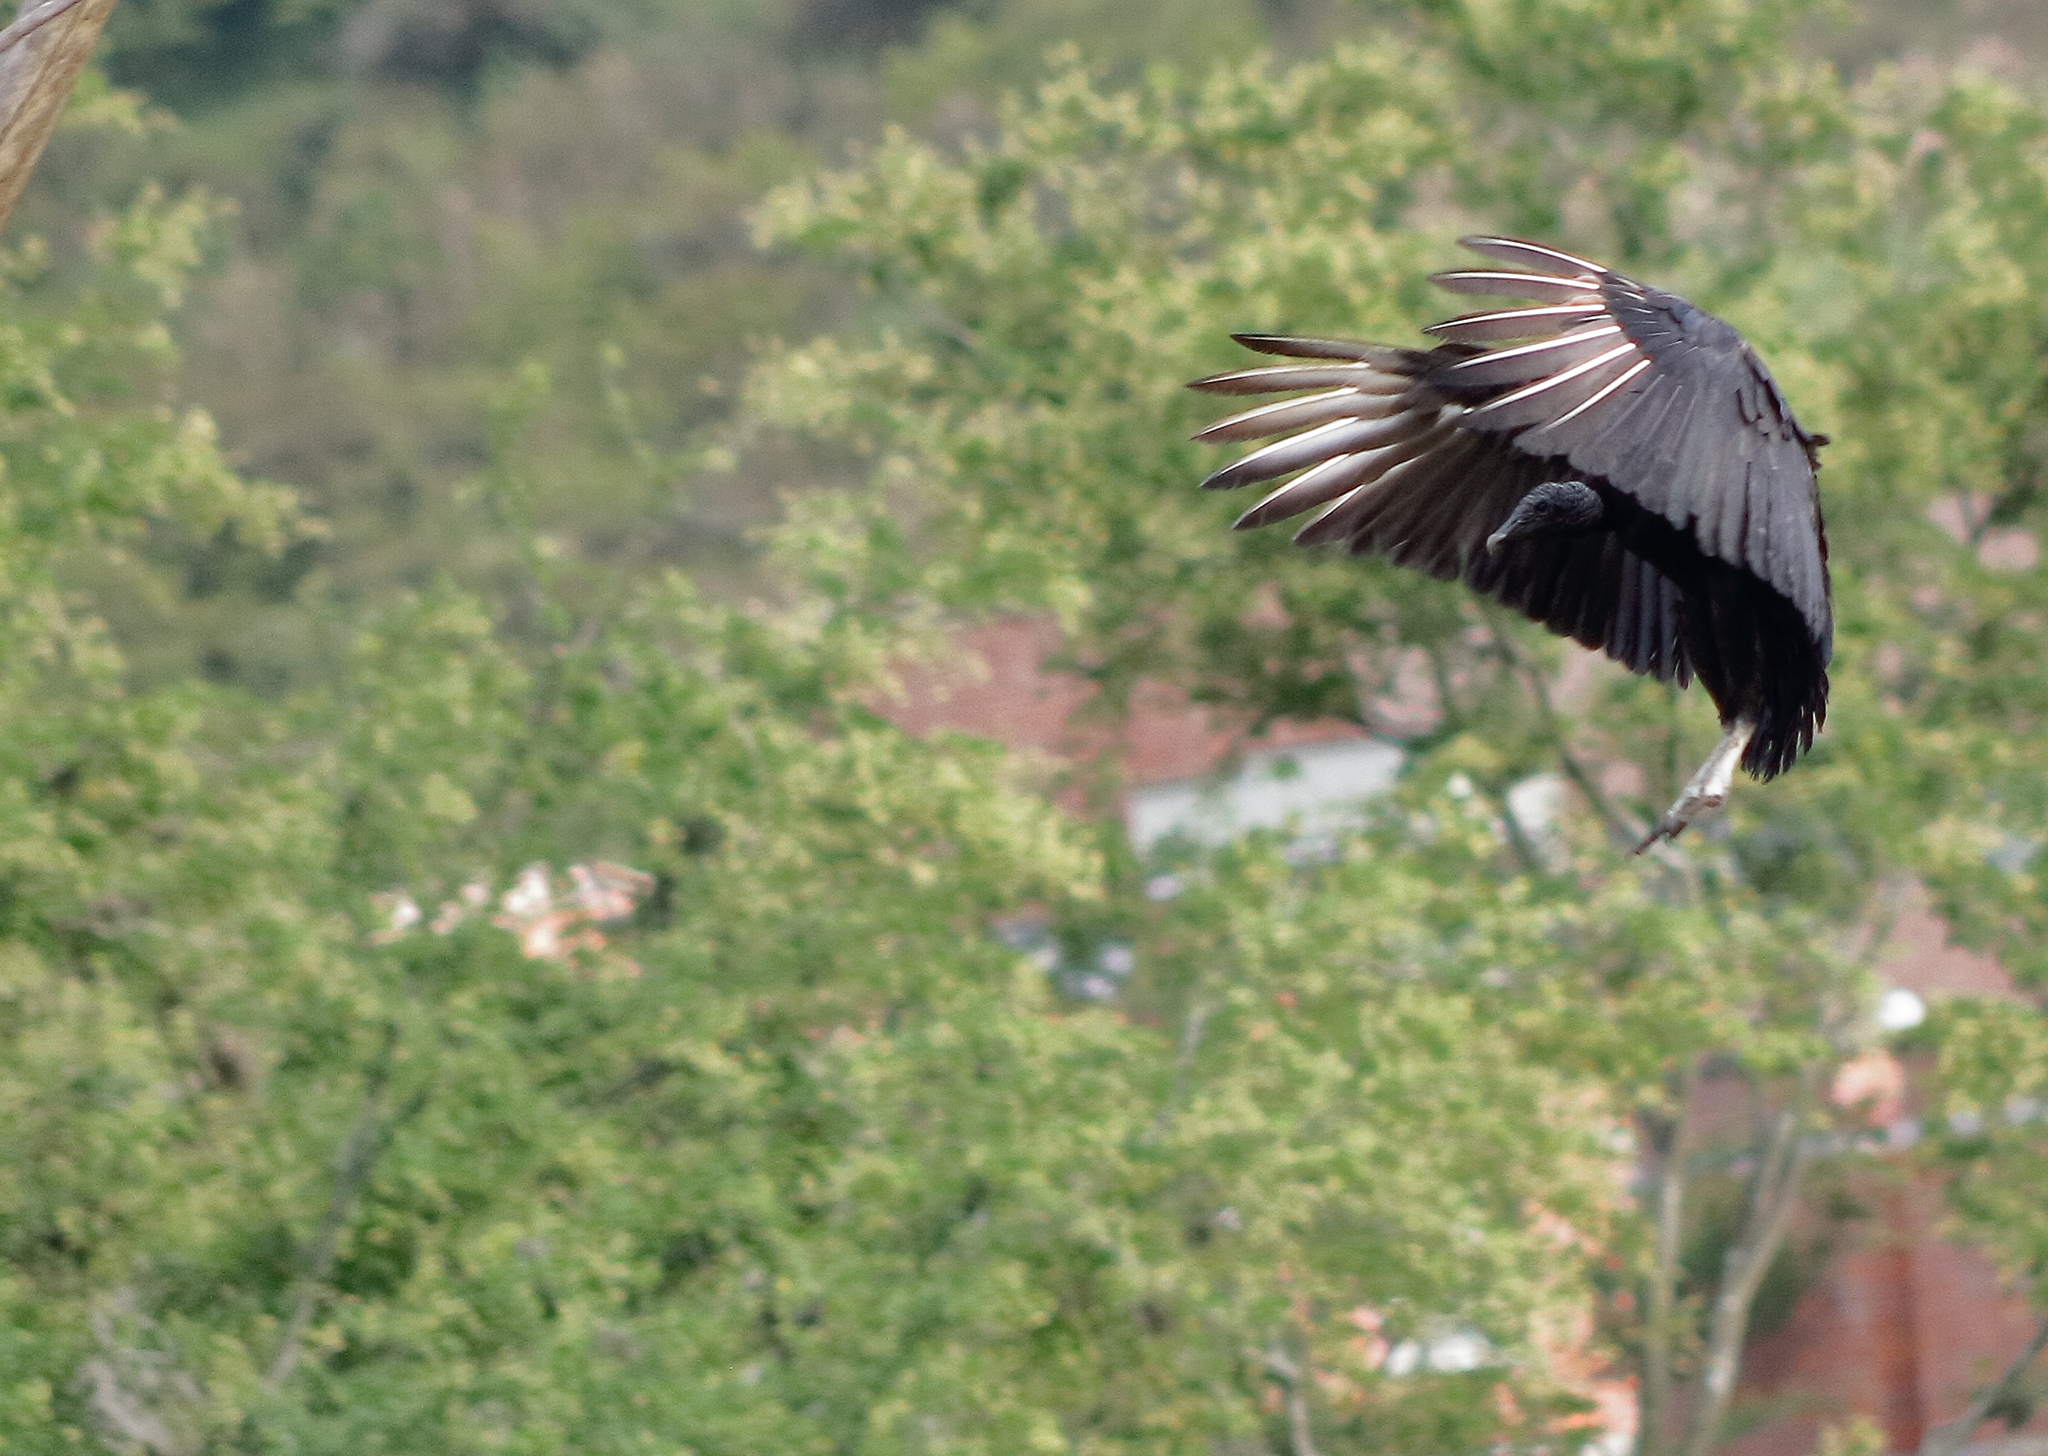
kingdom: Animalia
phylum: Chordata
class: Aves
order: Accipitriformes
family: Cathartidae
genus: Coragyps
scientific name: Coragyps atratus
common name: Black vulture
